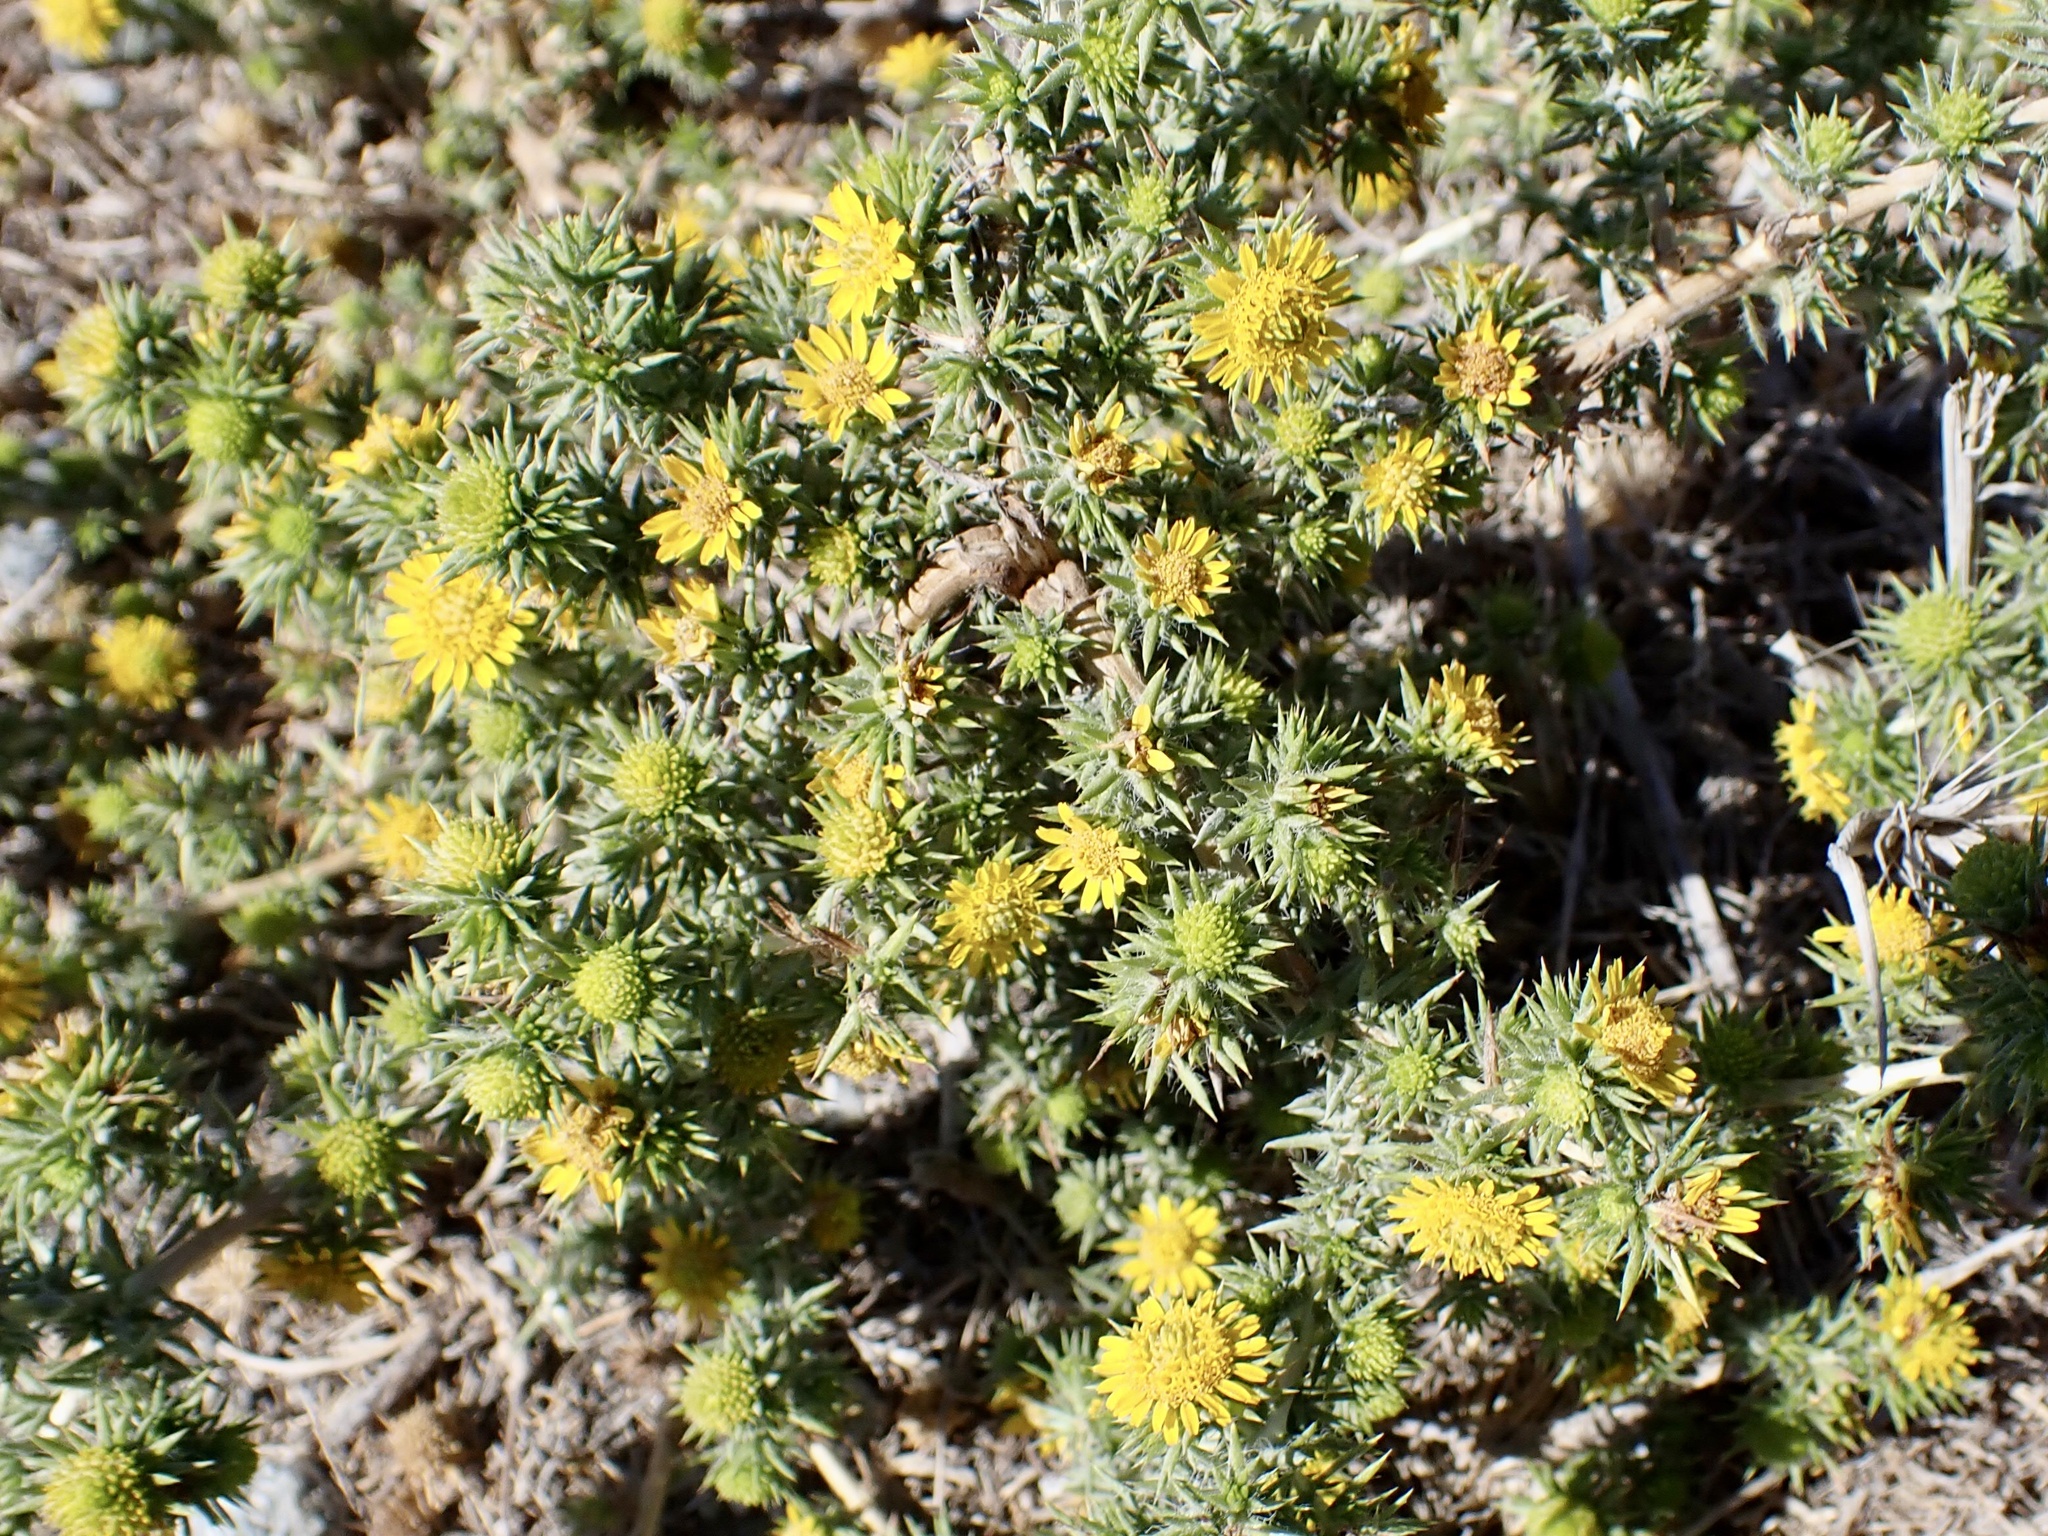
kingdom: Plantae
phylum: Tracheophyta
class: Magnoliopsida
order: Asterales
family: Asteraceae
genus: Centromadia
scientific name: Centromadia pungens
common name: Common spikeweed
